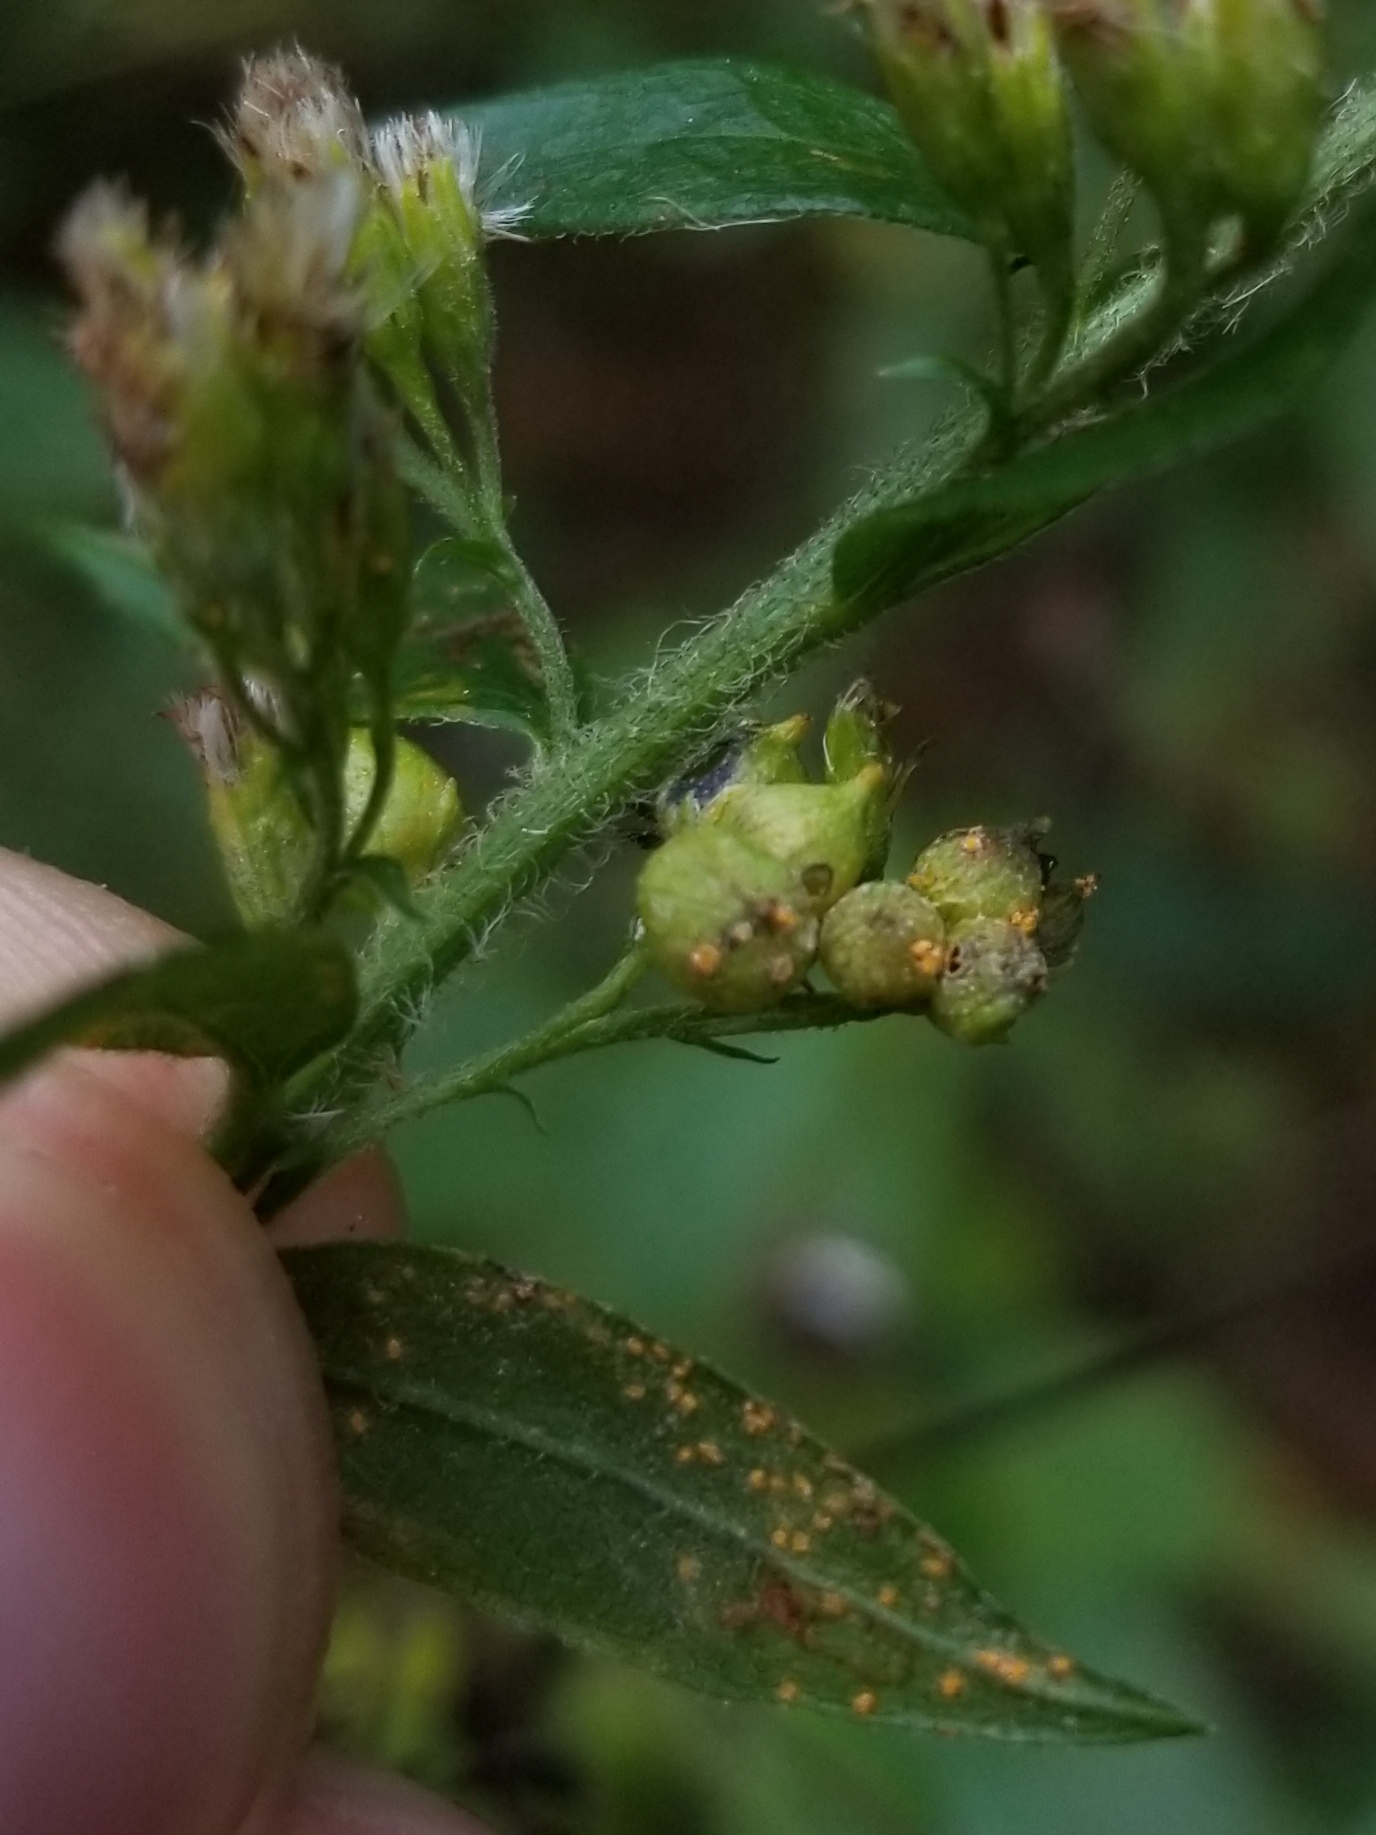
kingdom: Animalia
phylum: Arthropoda
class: Insecta
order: Diptera
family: Cecidomyiidae
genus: Schizomyia
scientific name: Schizomyia racemicola
